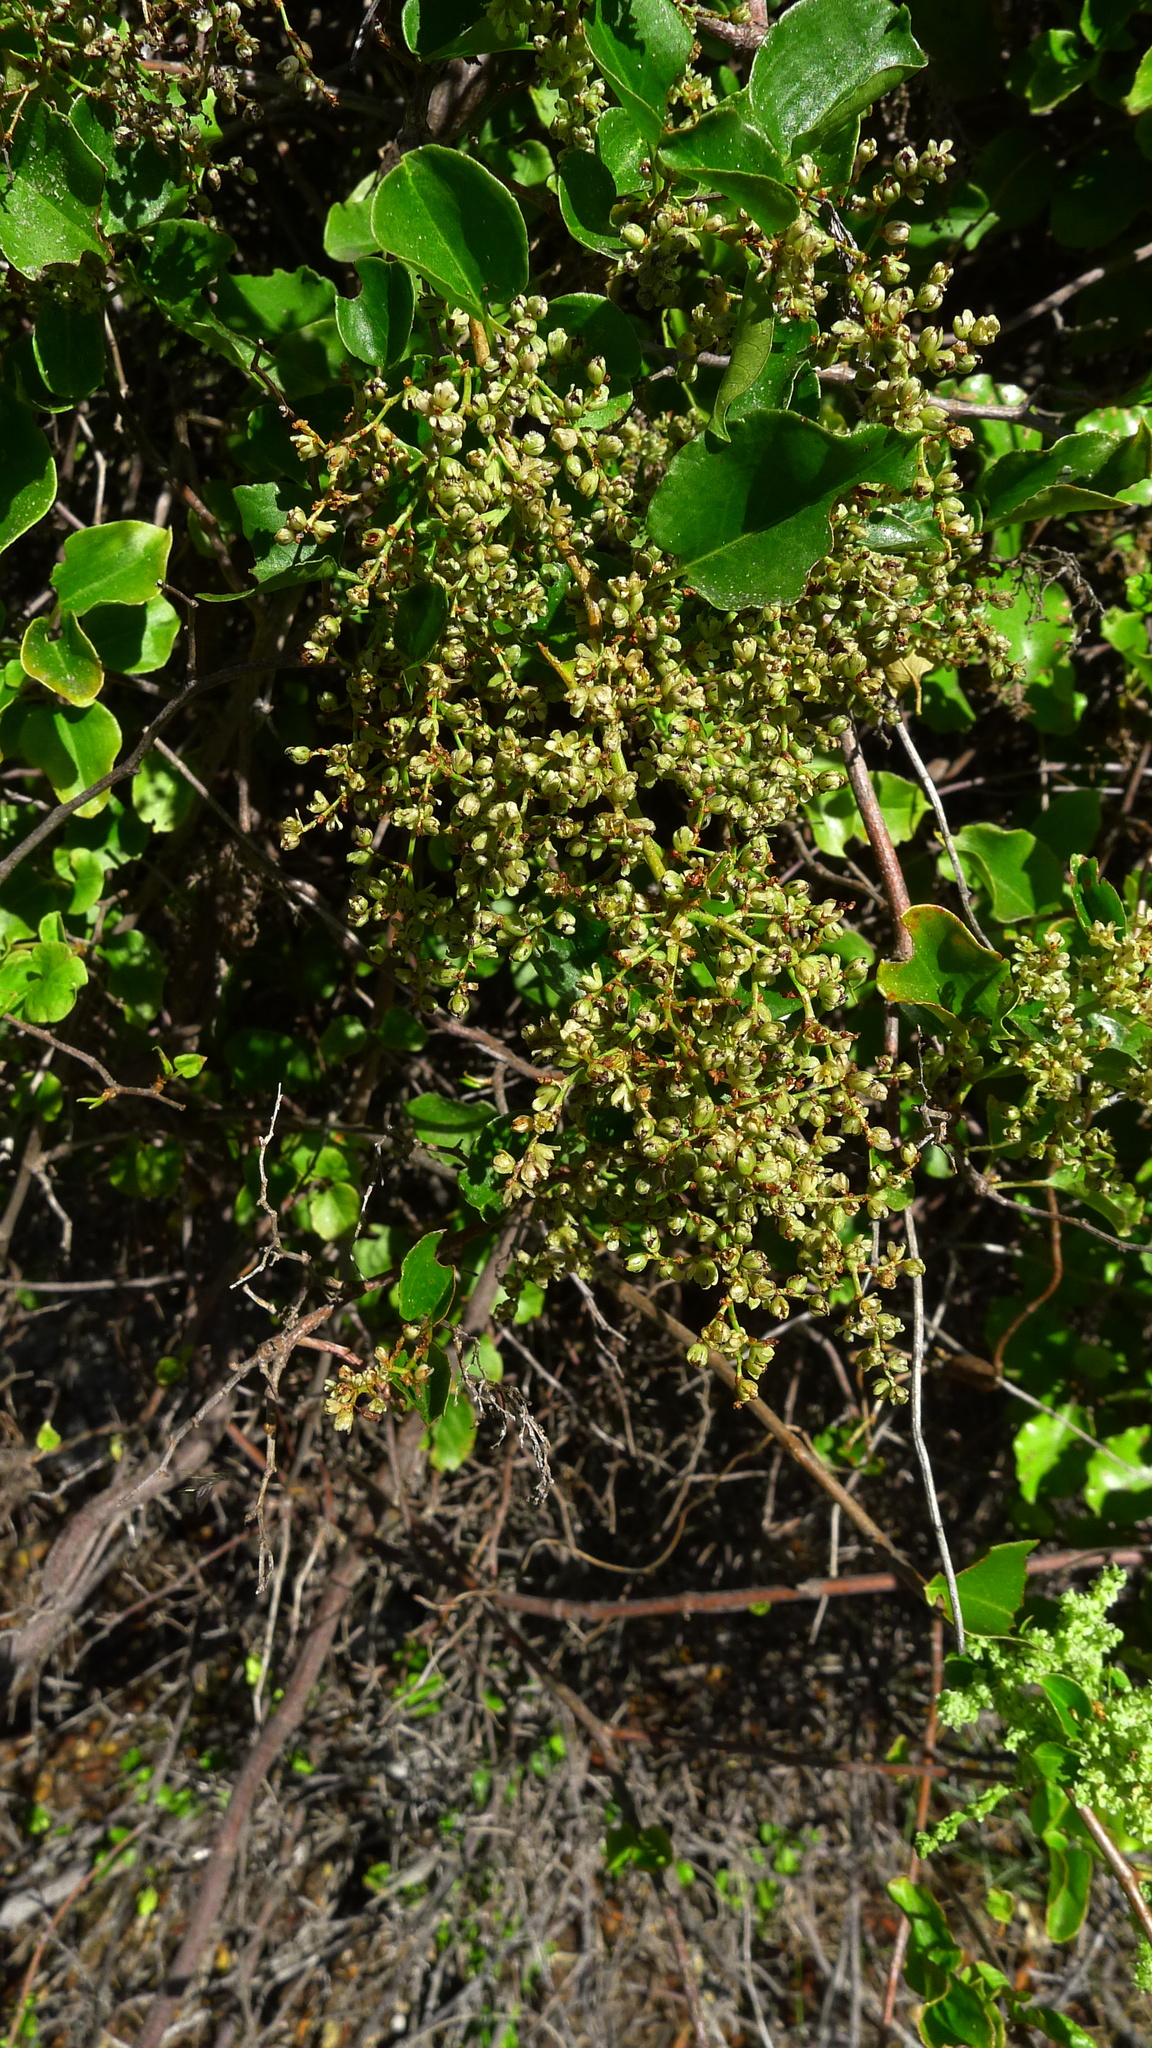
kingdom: Plantae
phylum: Tracheophyta
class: Magnoliopsida
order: Caryophyllales
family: Polygonaceae
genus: Muehlenbeckia
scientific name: Muehlenbeckia australis
